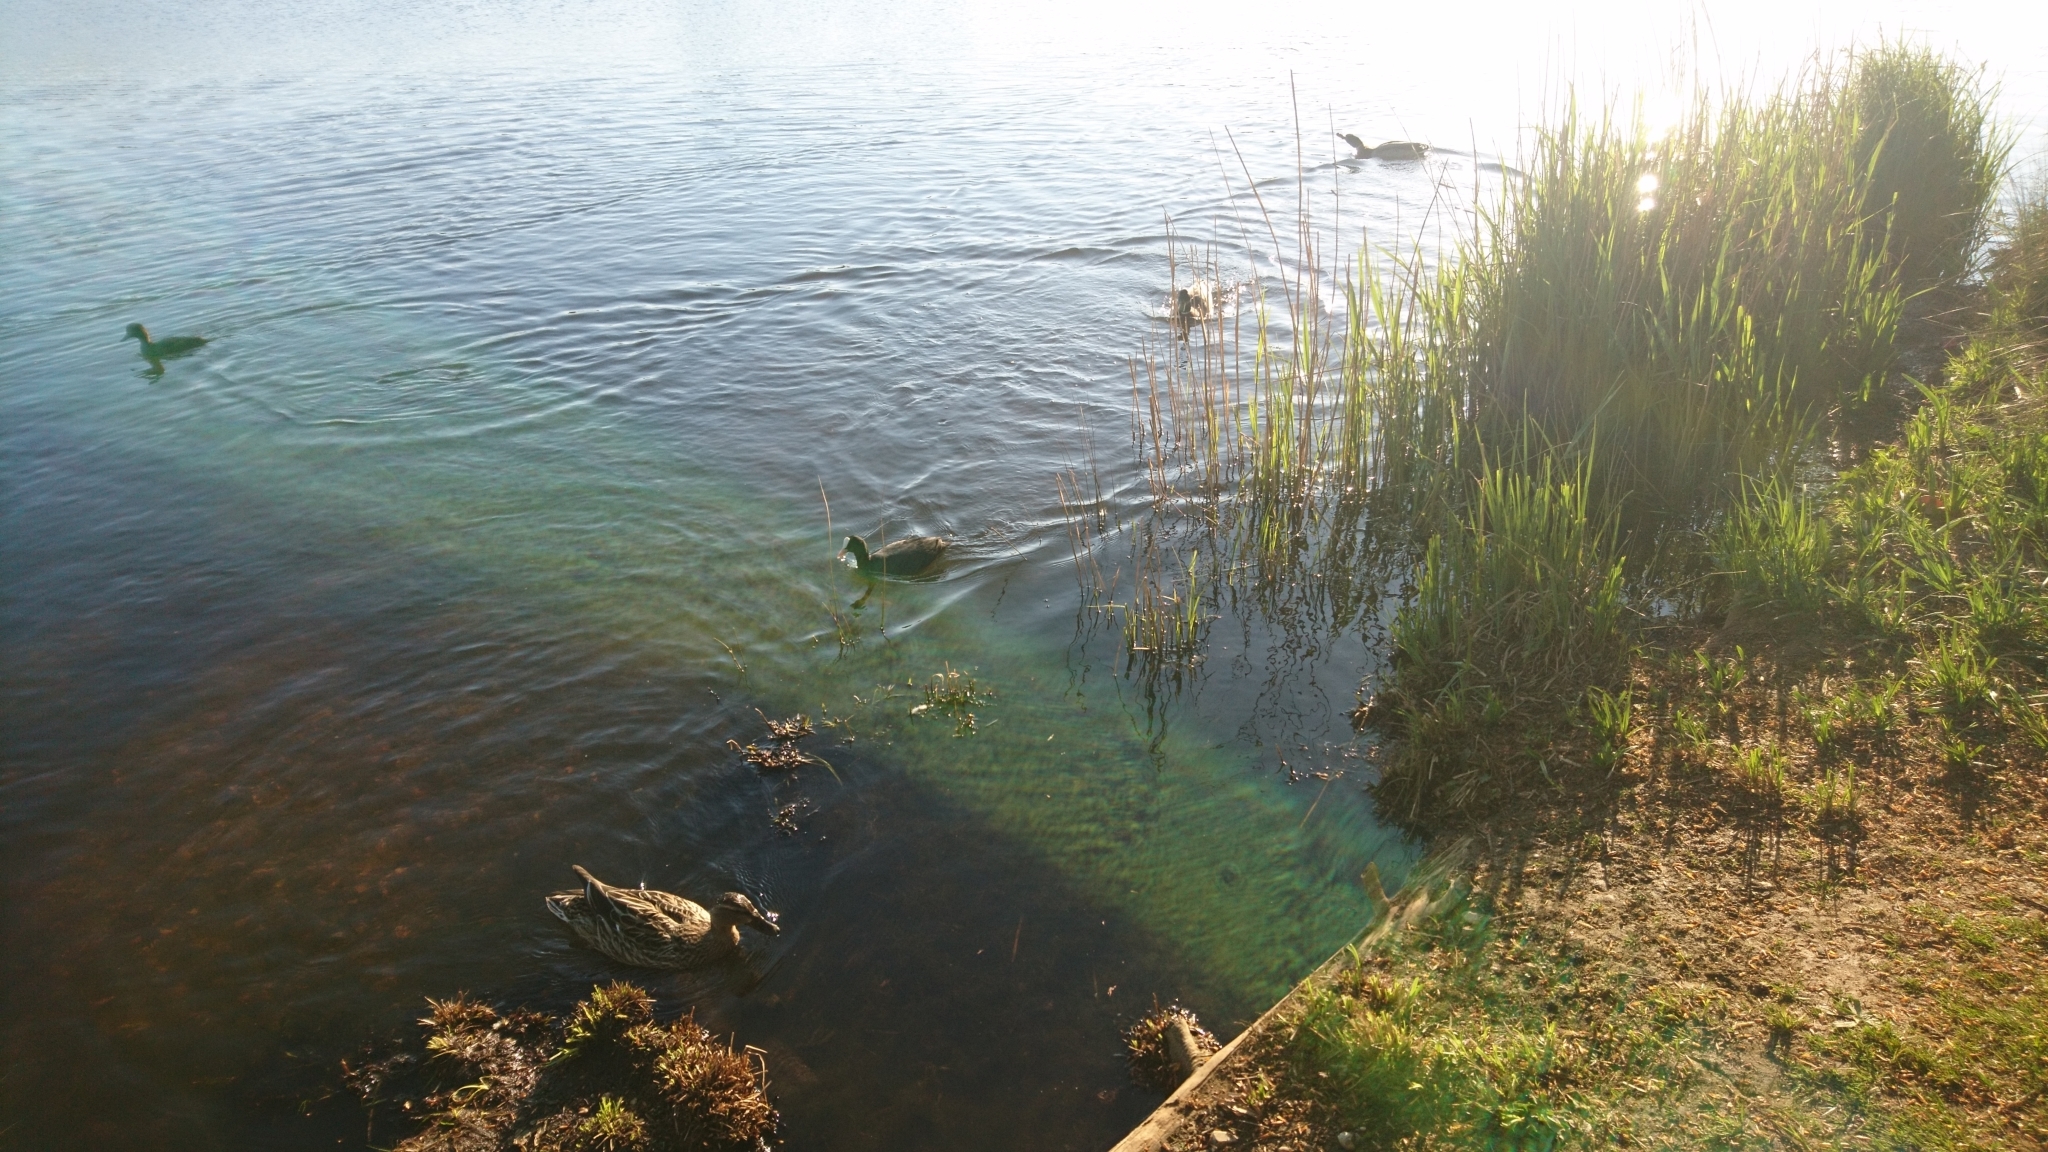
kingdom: Animalia
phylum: Chordata
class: Aves
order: Gruiformes
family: Rallidae
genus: Fulica
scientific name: Fulica atra
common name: Eurasian coot
